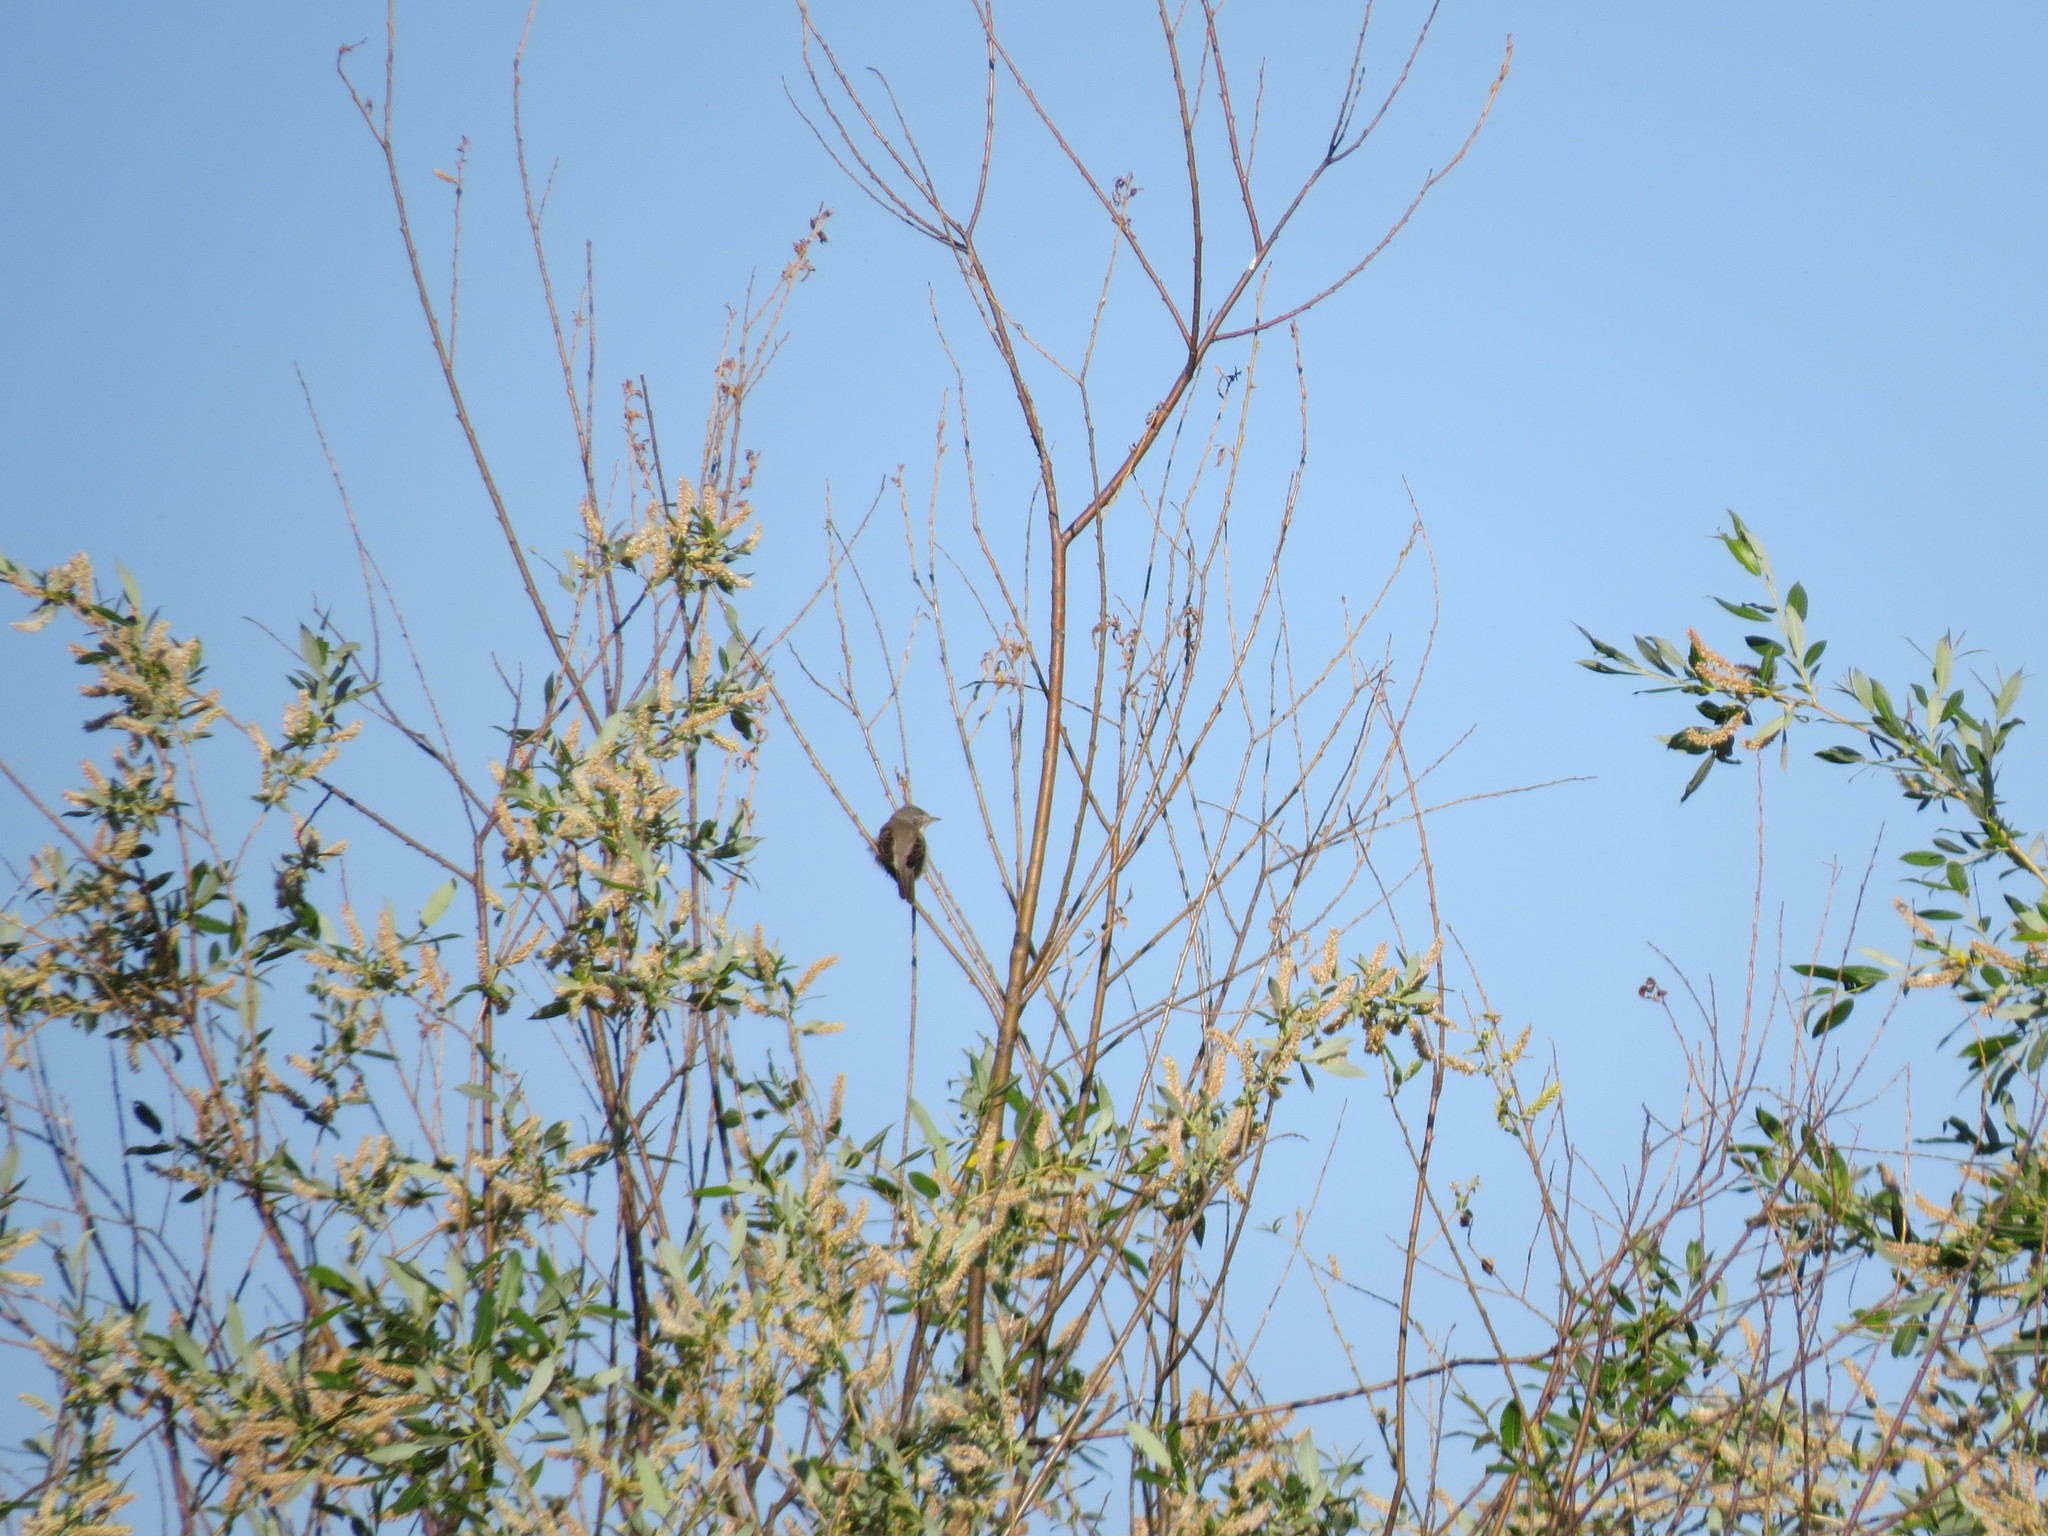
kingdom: Animalia
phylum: Chordata
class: Aves
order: Passeriformes
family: Sylviidae
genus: Sylvia
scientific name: Sylvia communis
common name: Common whitethroat
